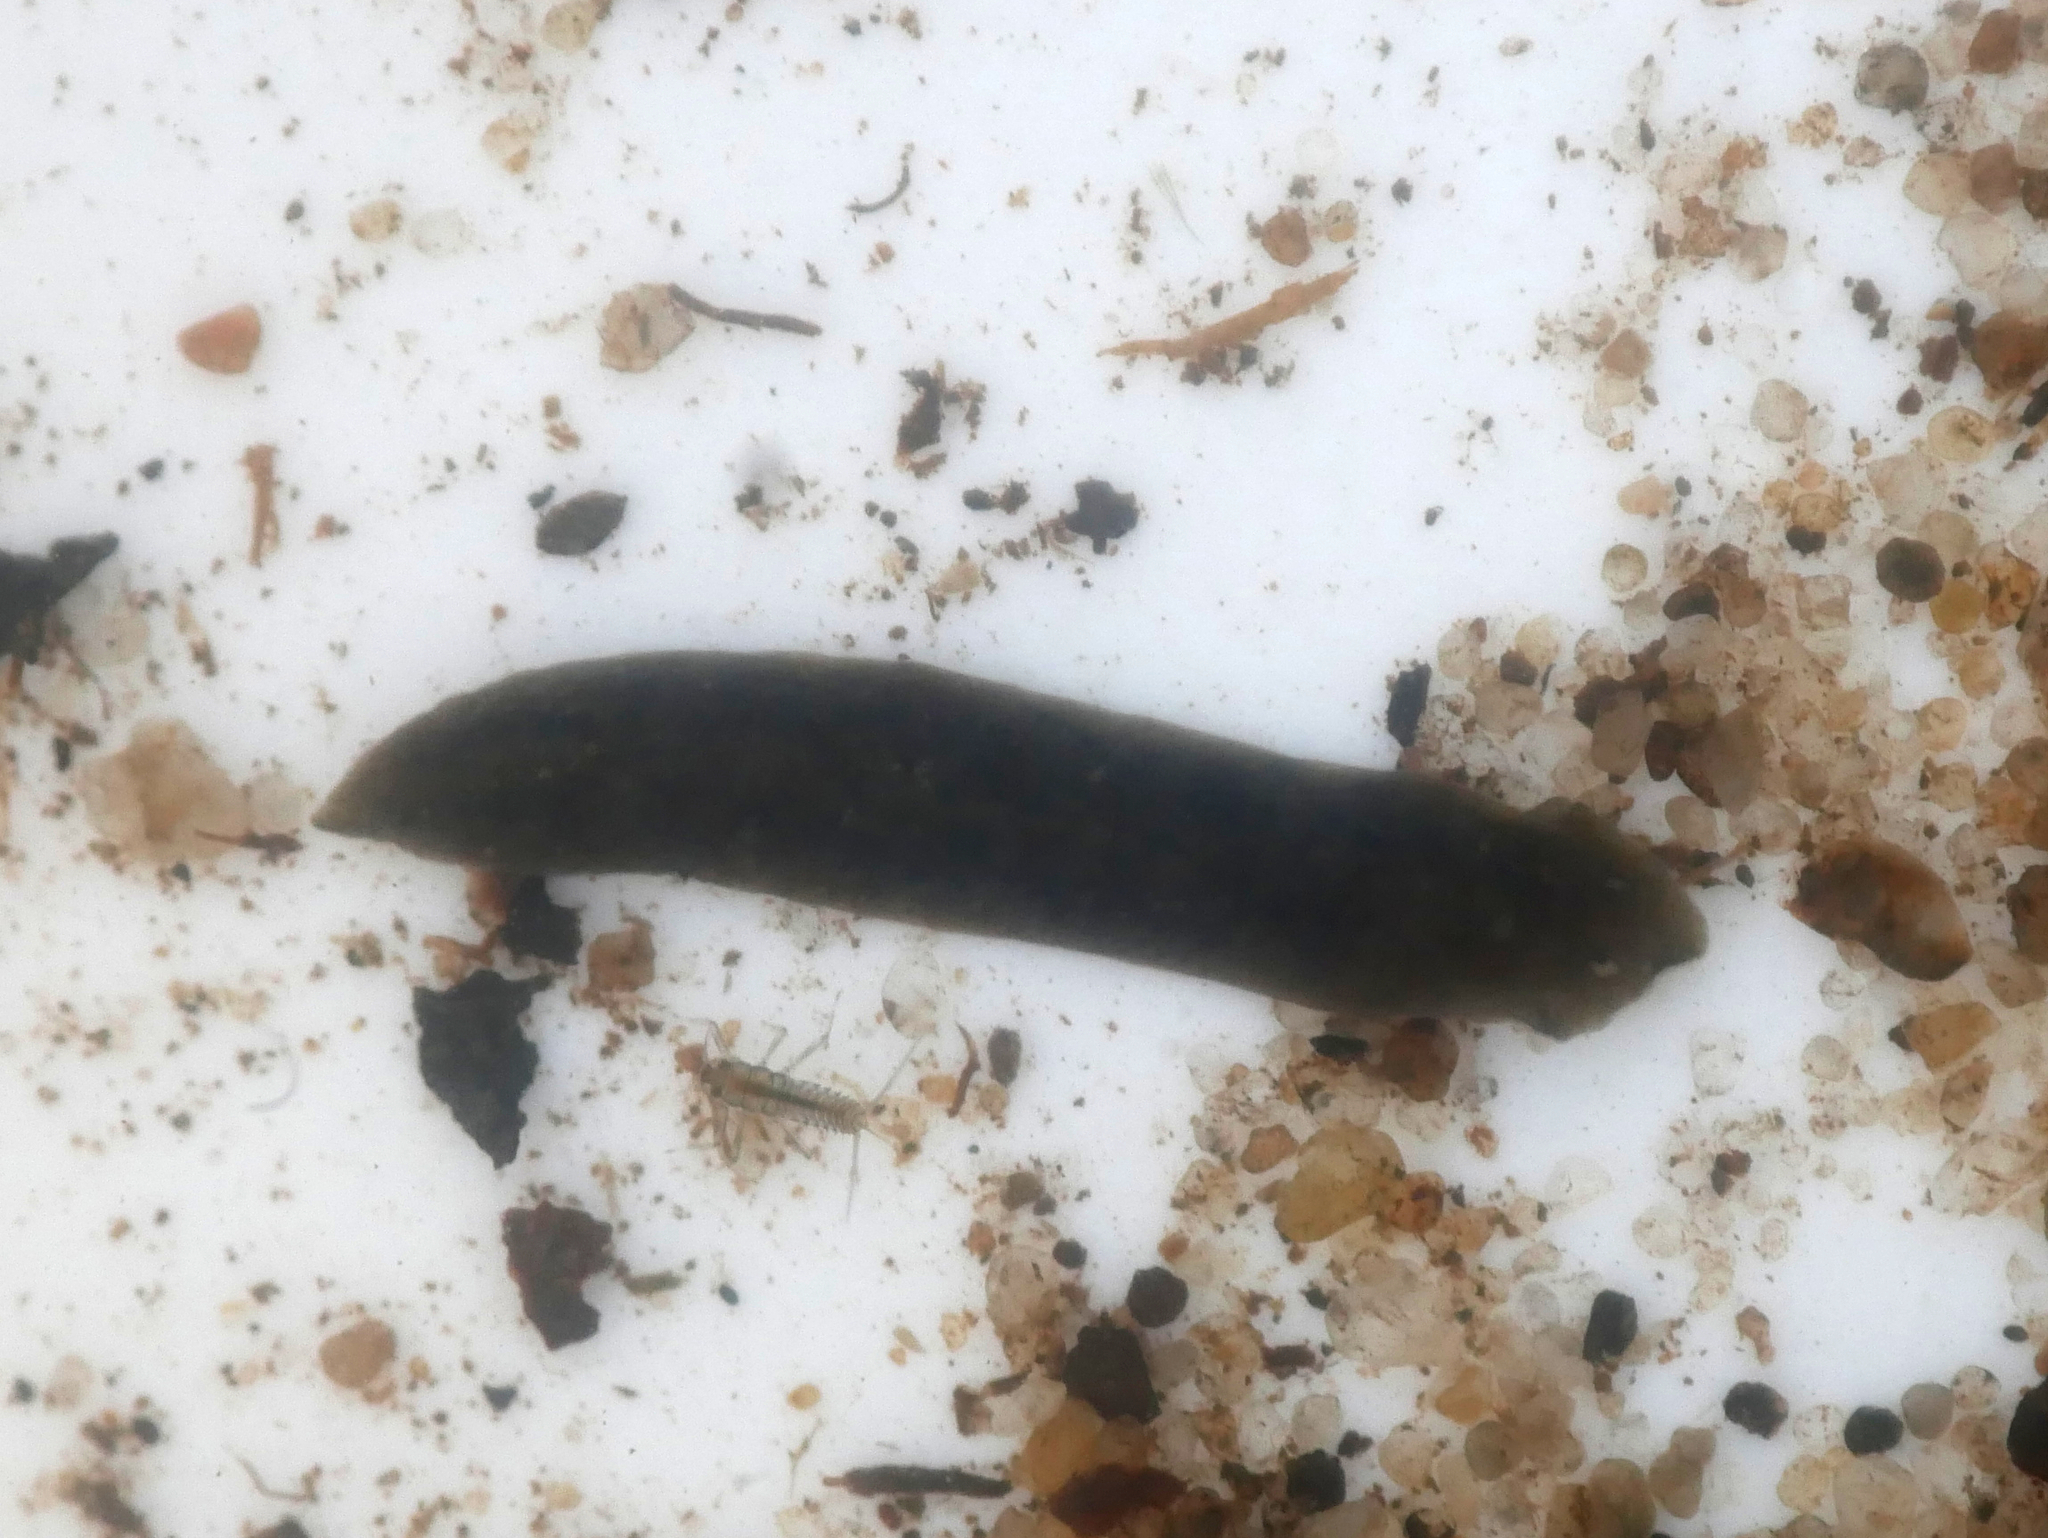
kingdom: Animalia
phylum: Platyhelminthes
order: Tricladida
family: Dugesiidae
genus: Dugesia
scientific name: Dugesia gonocephala
